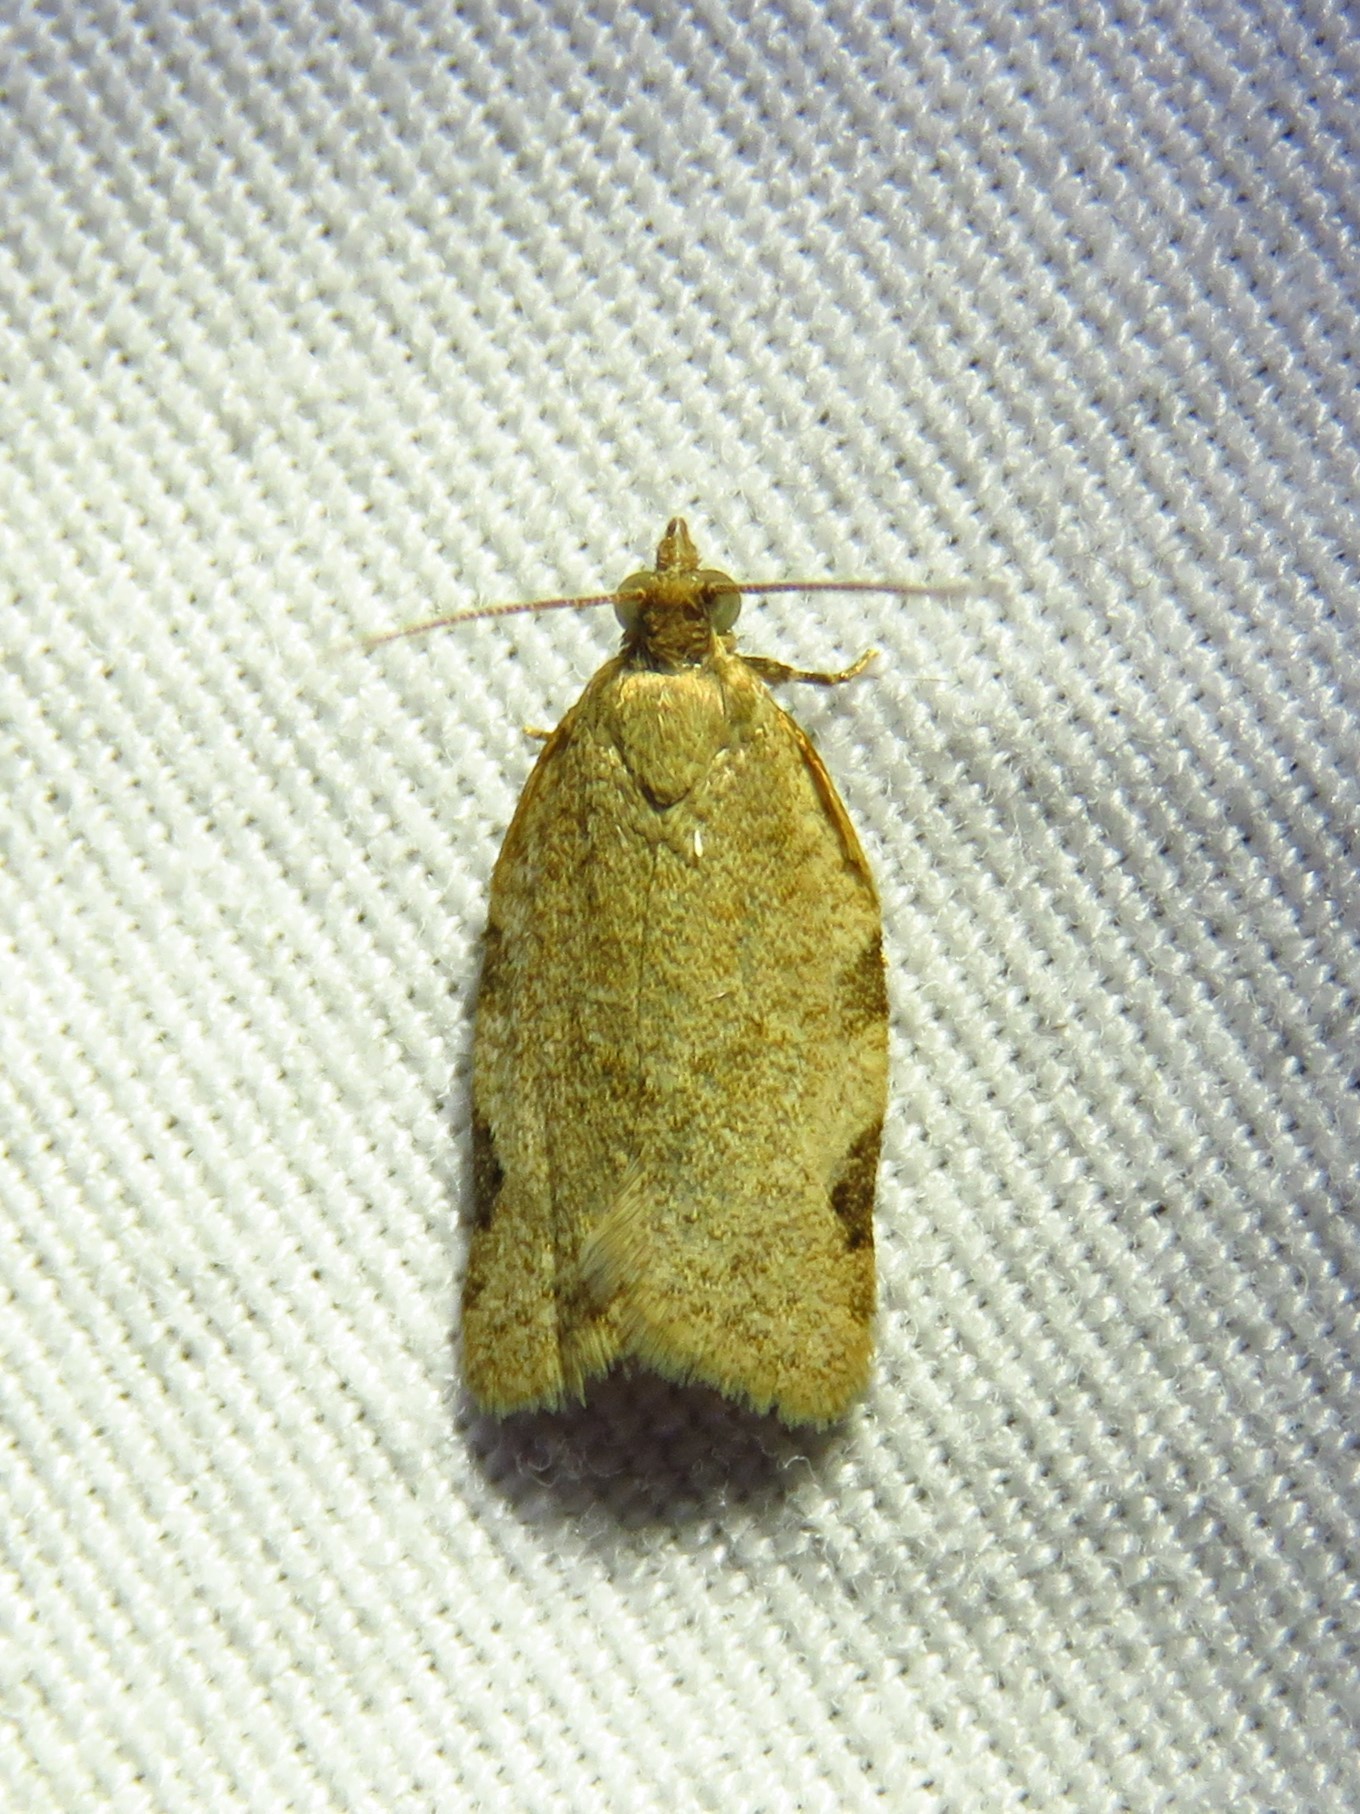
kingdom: Animalia
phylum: Arthropoda
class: Insecta
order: Lepidoptera
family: Tortricidae
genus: Clepsis
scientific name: Clepsis virescana
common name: Greenish apple moth
